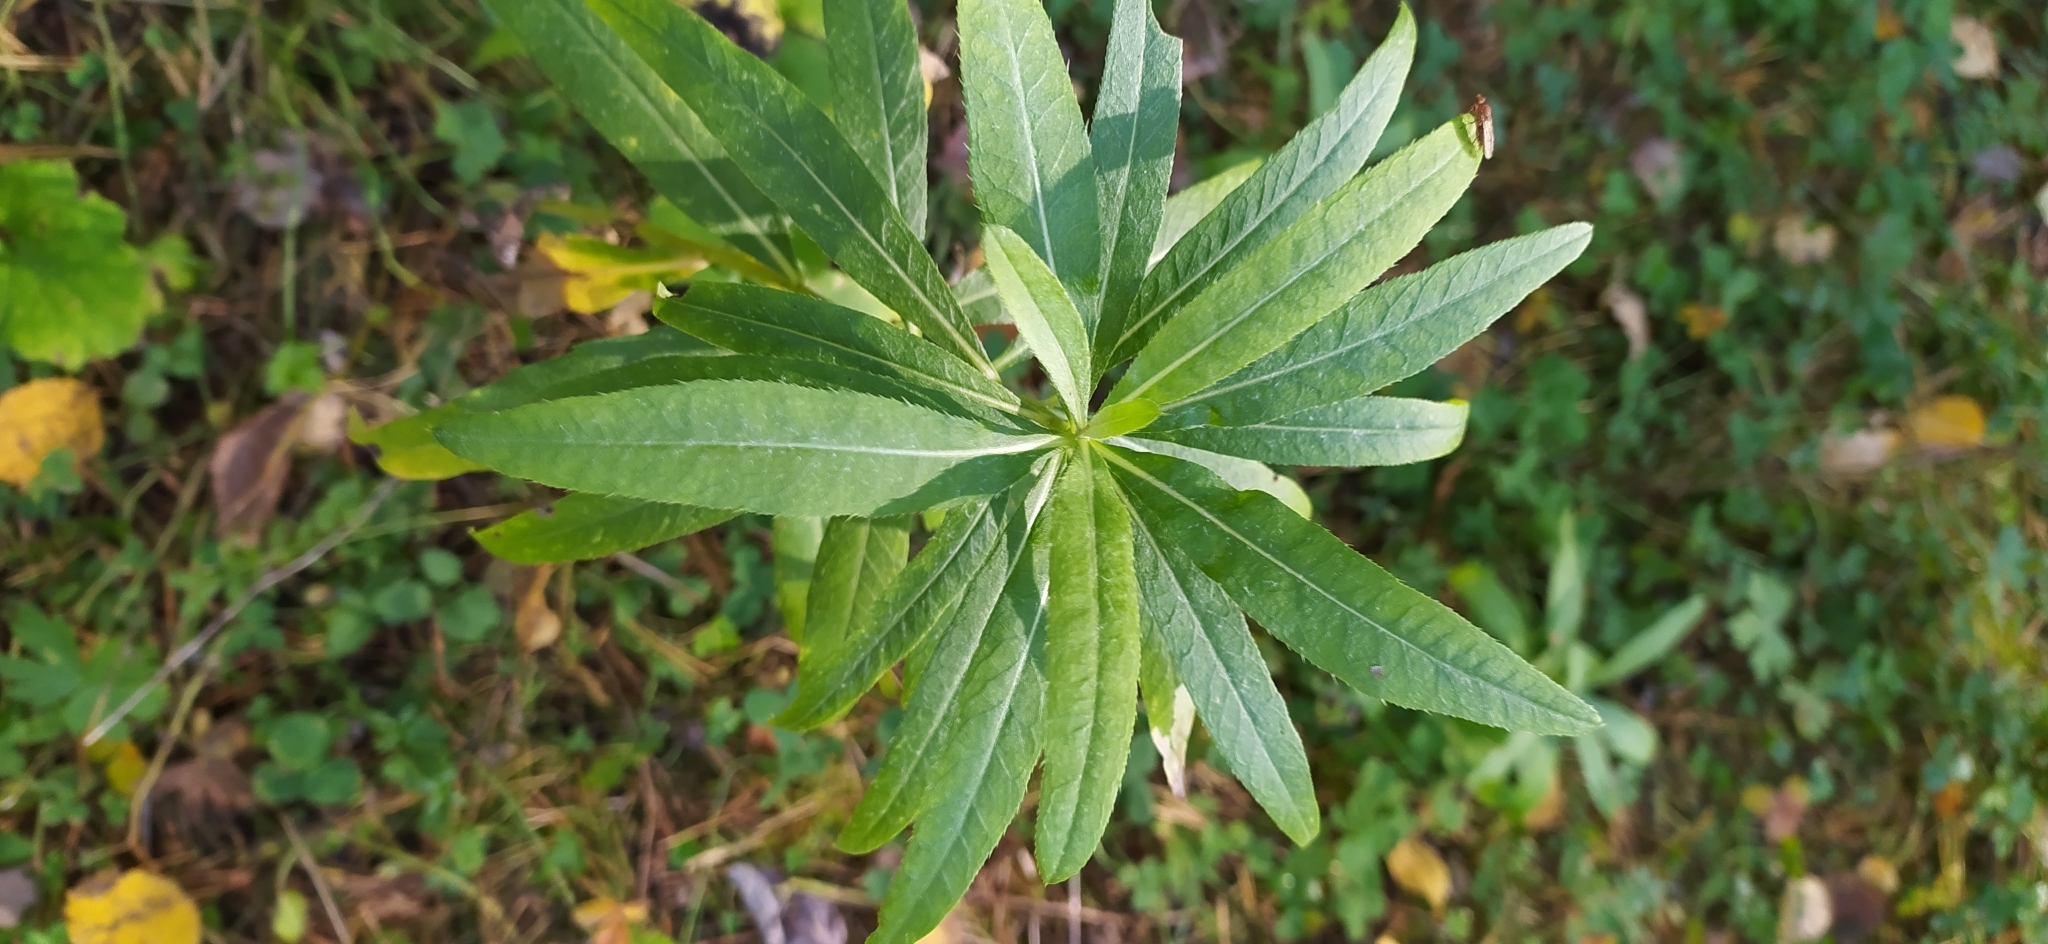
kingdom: Plantae
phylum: Tracheophyta
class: Magnoliopsida
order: Myrtales
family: Onagraceae
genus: Chamaenerion
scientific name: Chamaenerion angustifolium
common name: Fireweed
